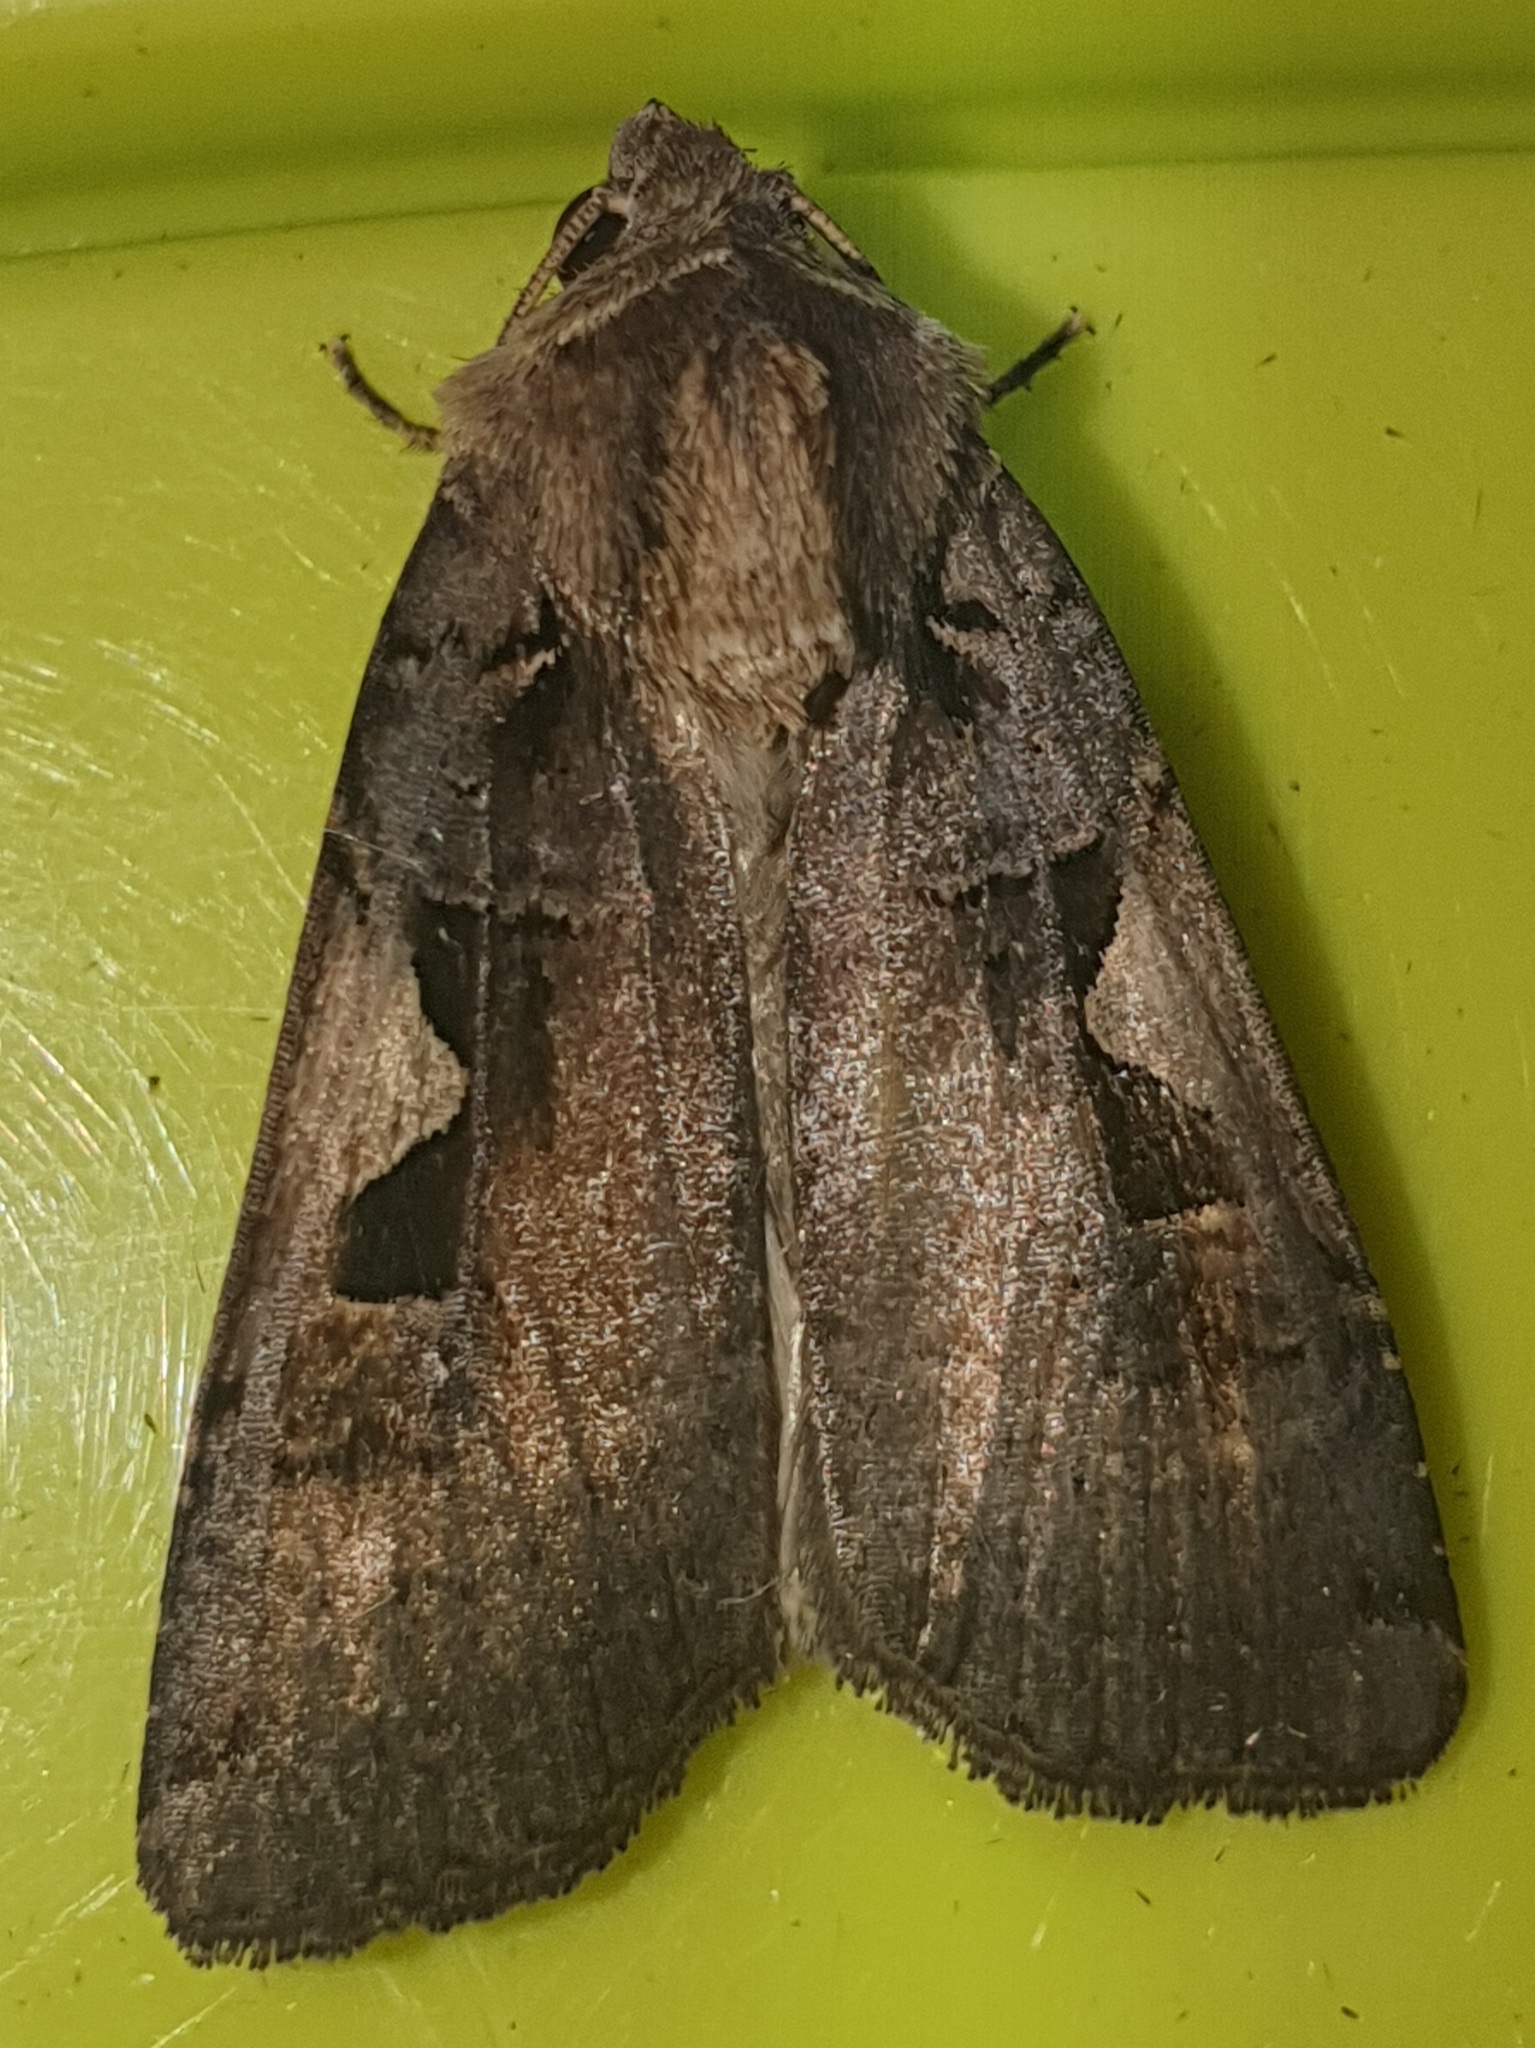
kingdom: Animalia
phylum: Arthropoda
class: Insecta
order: Lepidoptera
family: Noctuidae
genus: Xestia
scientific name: Xestia c-nigrum
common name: Setaceous hebrew character
